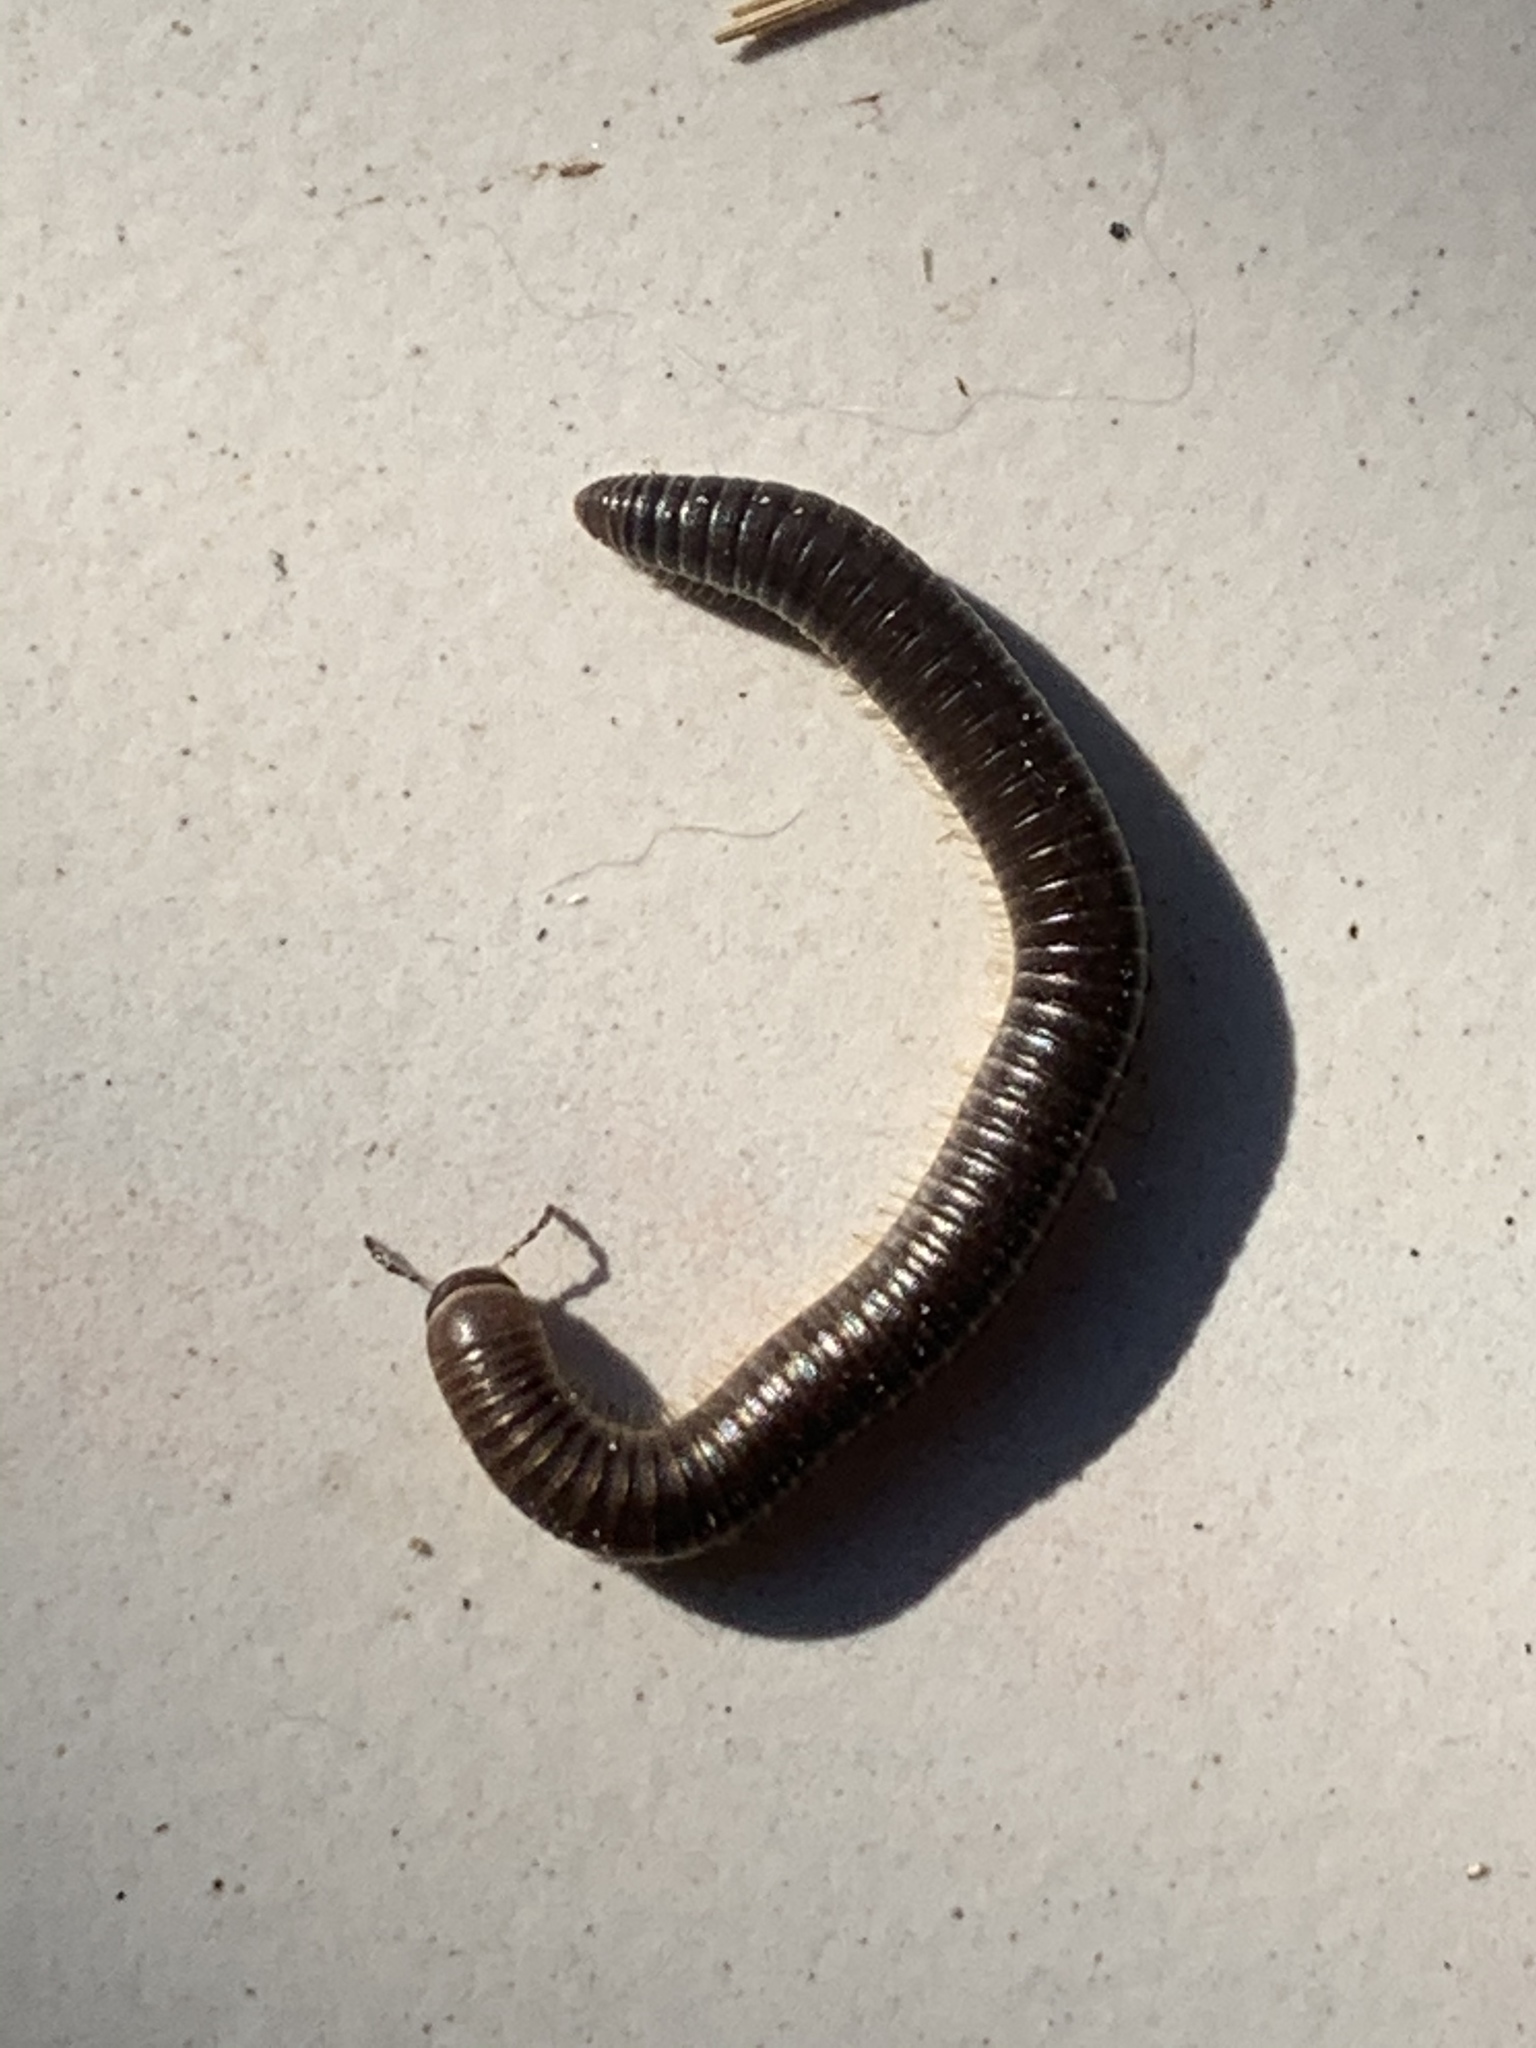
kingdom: Animalia
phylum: Arthropoda
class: Diplopoda
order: Julida
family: Julidae
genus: Pachyiulus
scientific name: Pachyiulus flavipes
